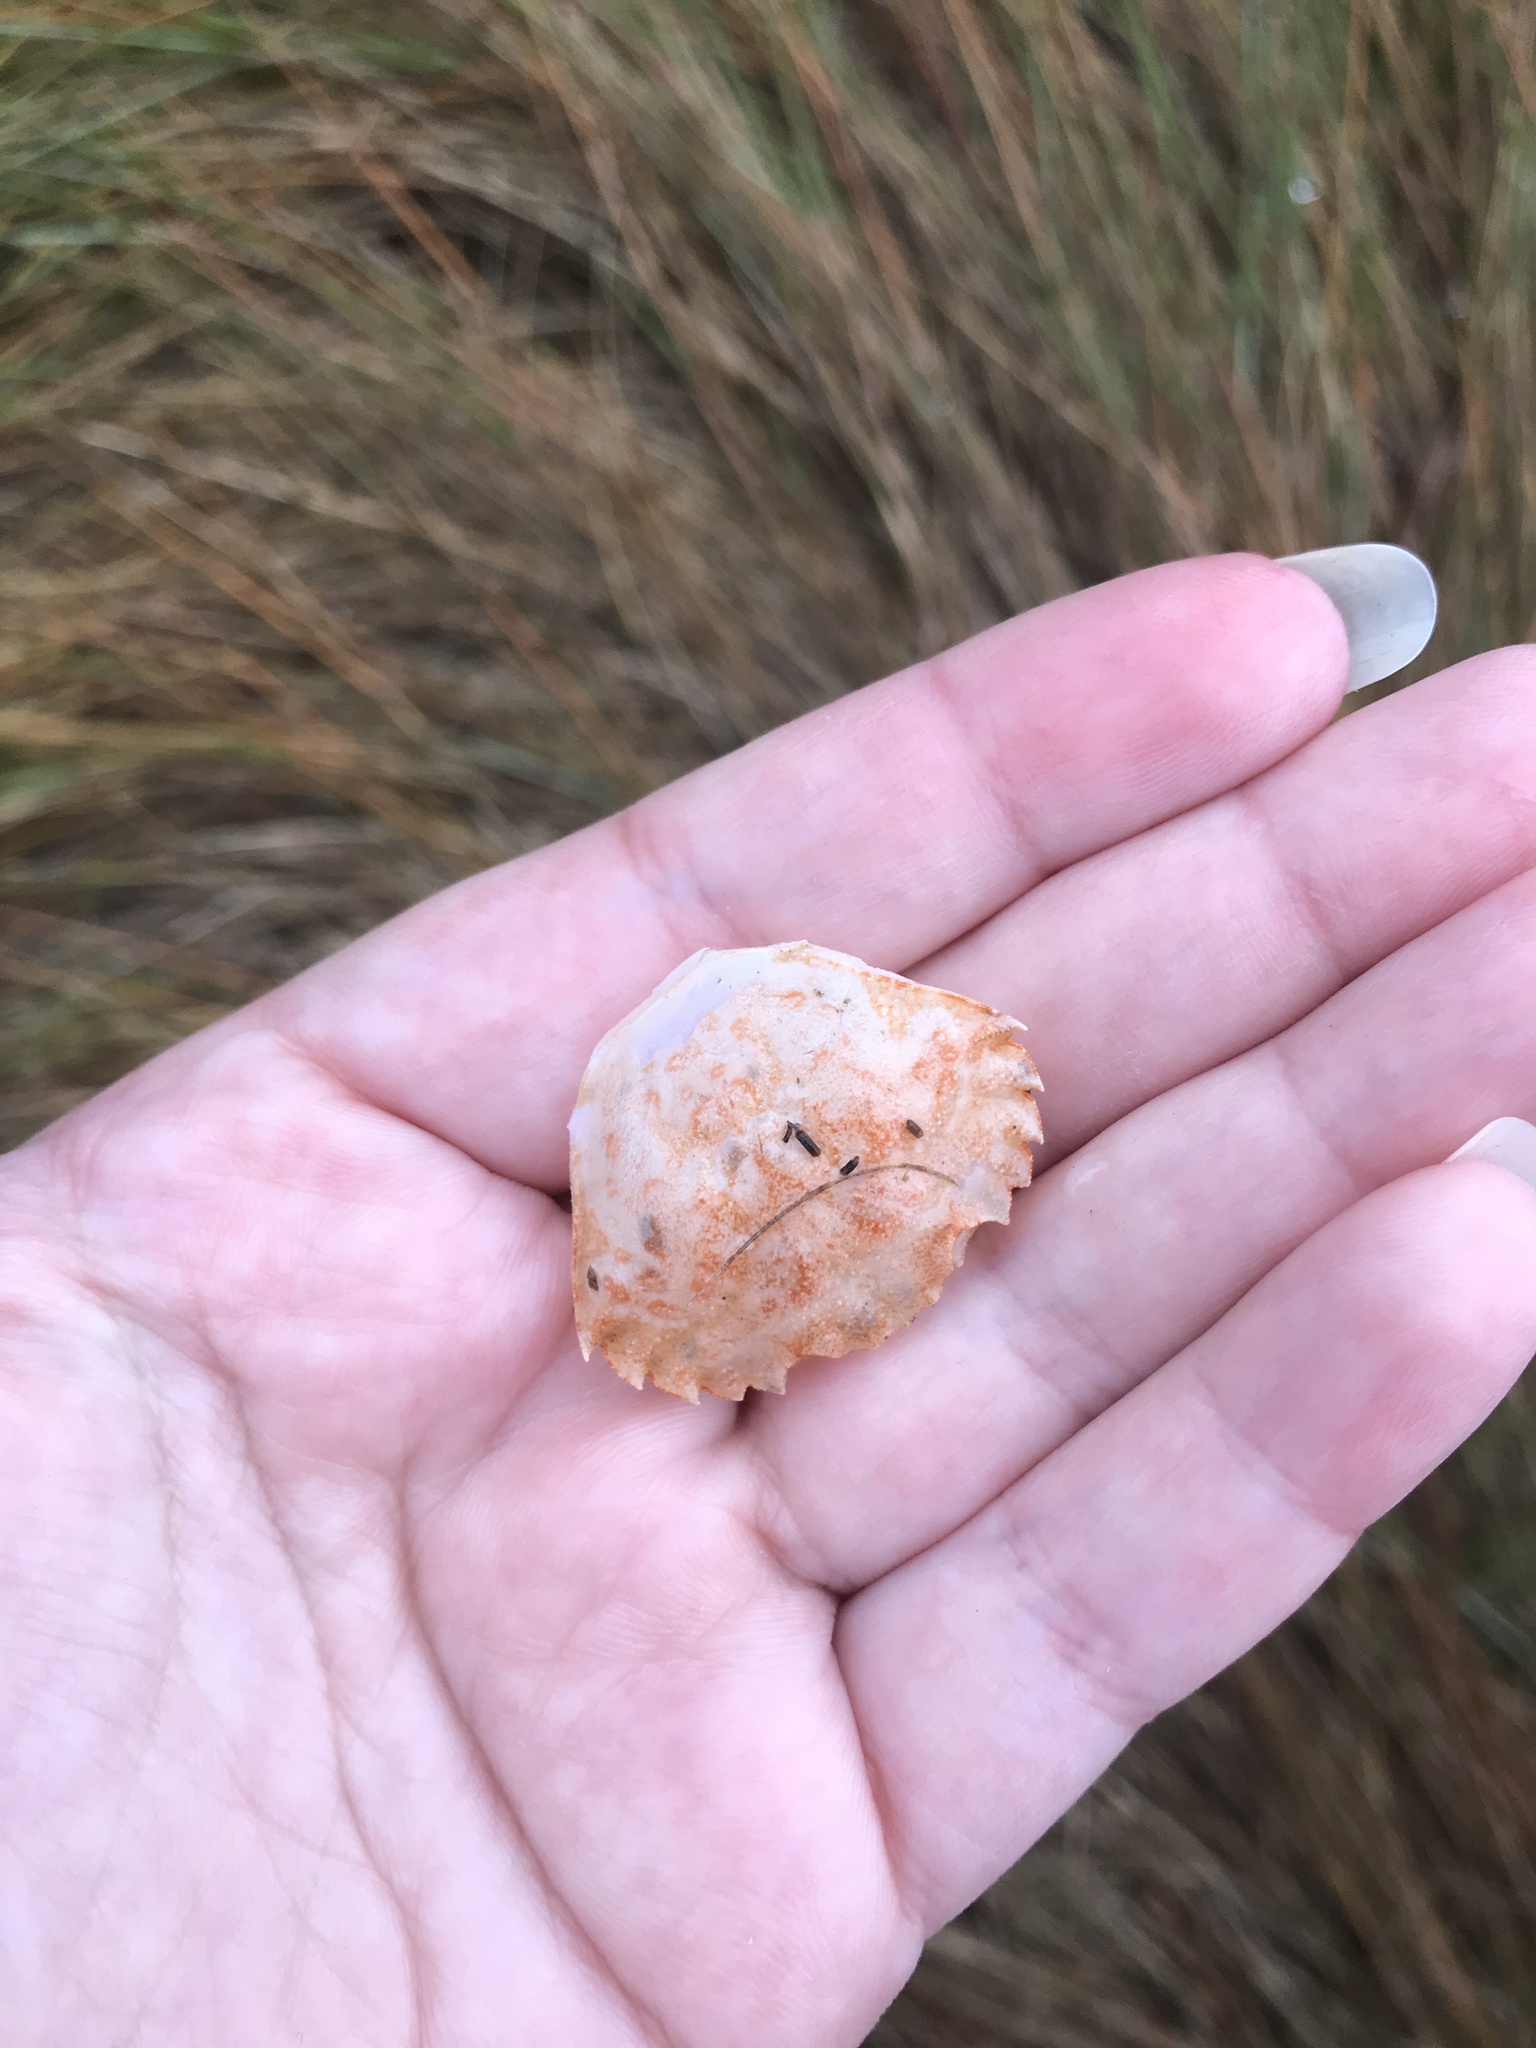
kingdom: Animalia
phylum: Arthropoda
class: Malacostraca
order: Decapoda
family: Carcinidae
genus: Carcinus
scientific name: Carcinus maenas
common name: European green crab
